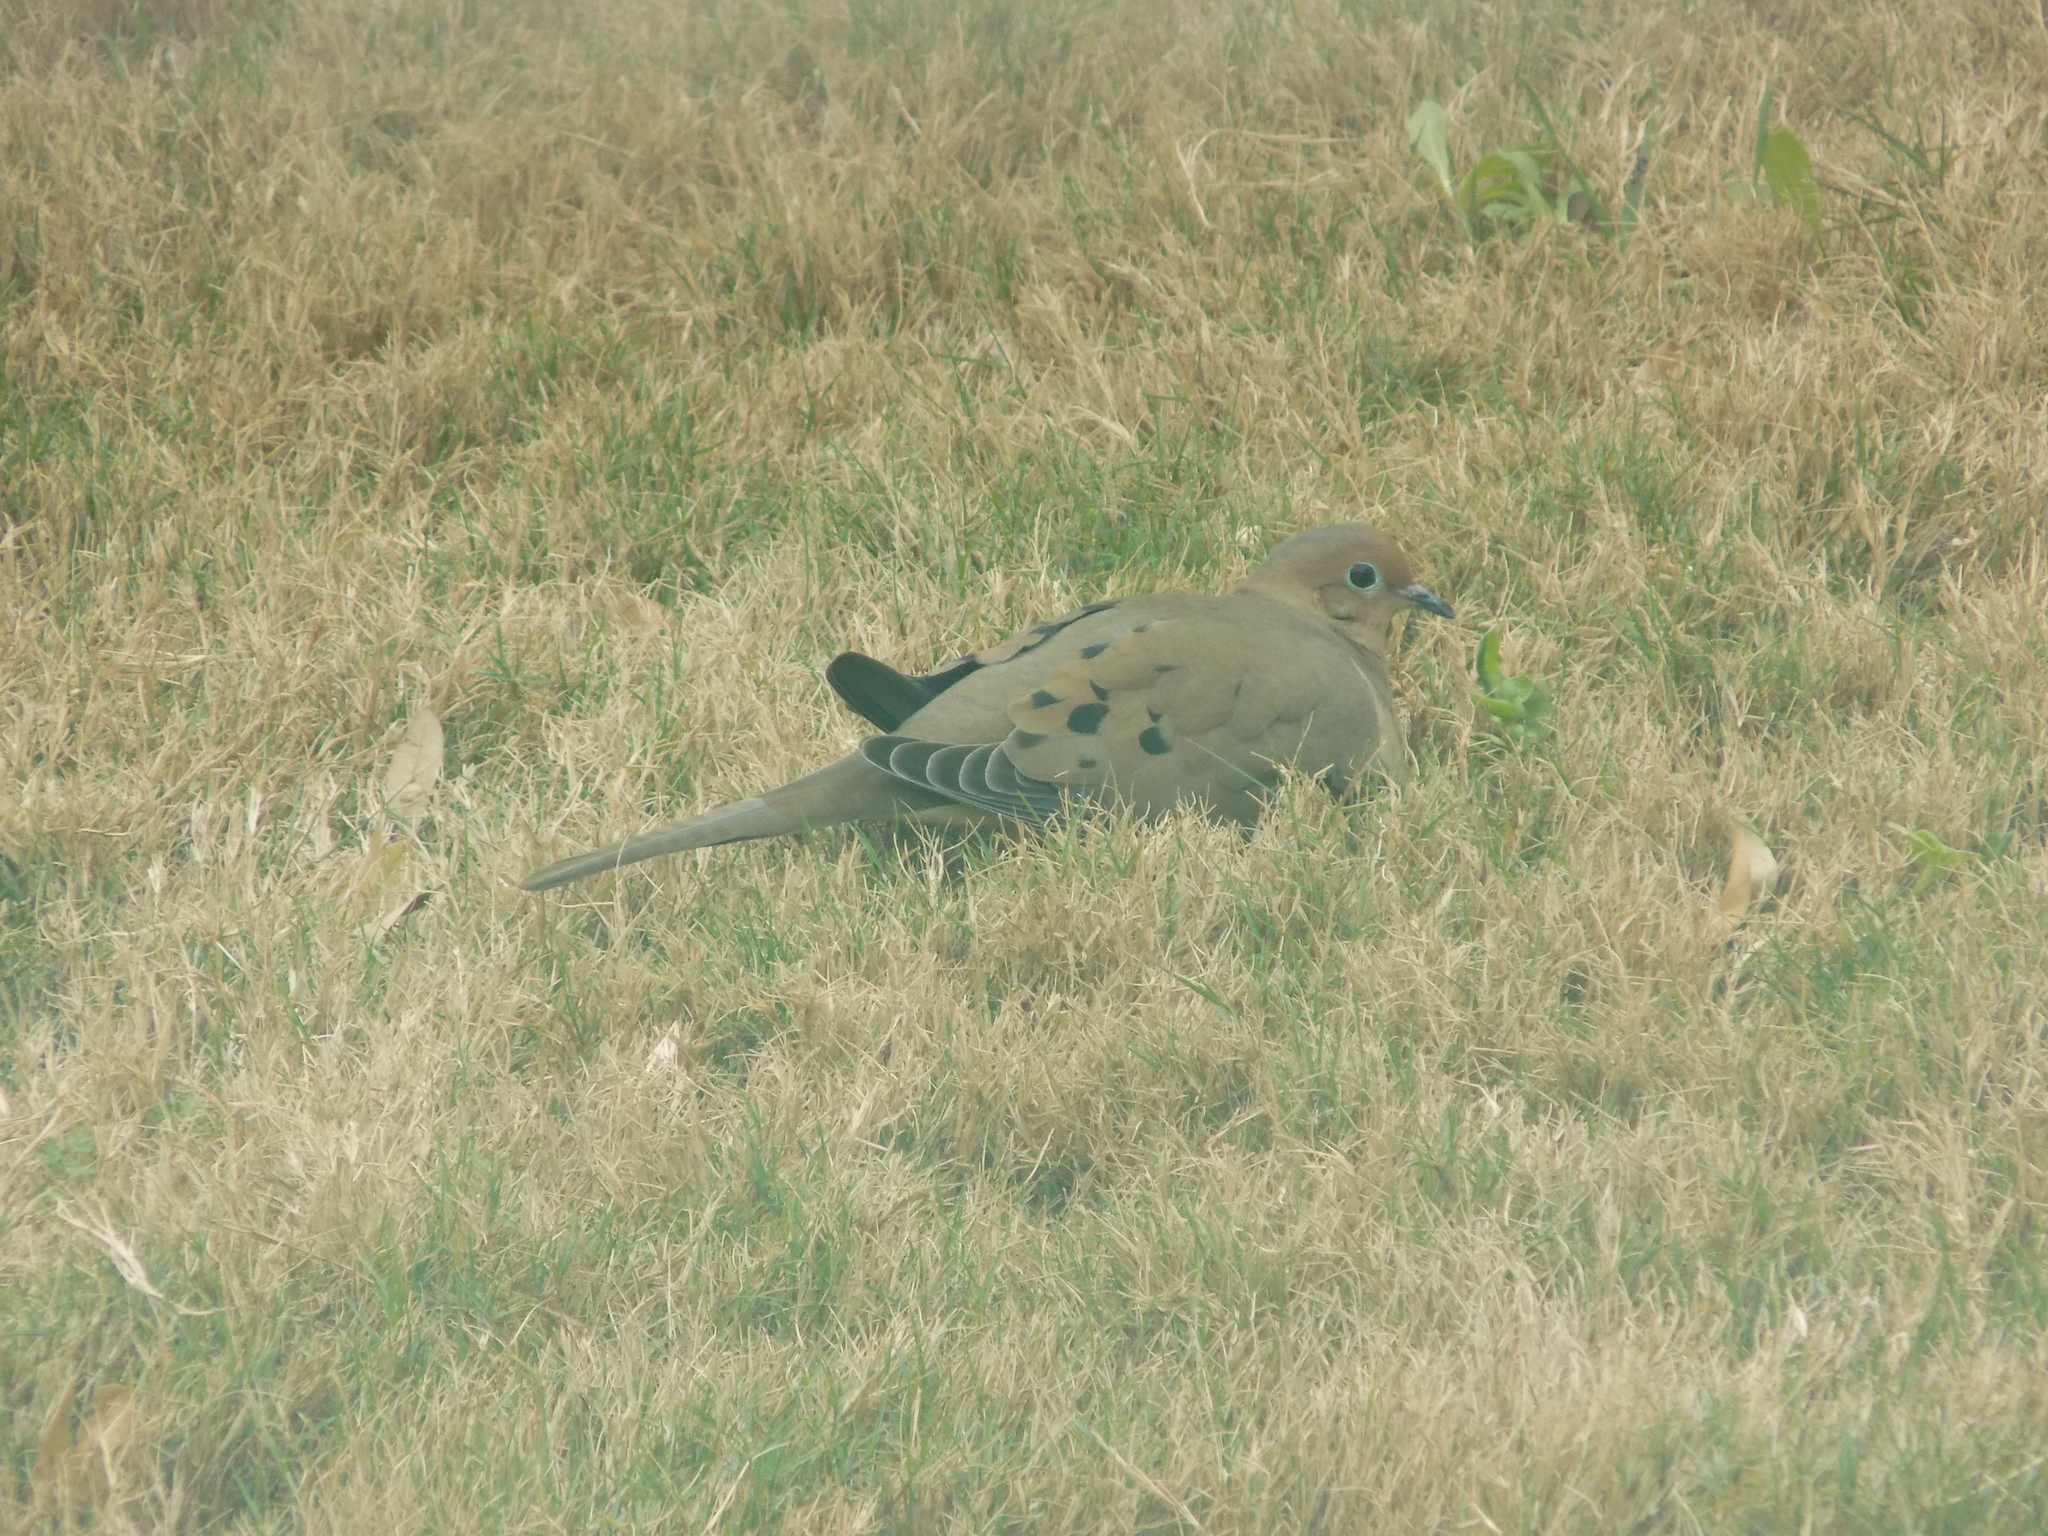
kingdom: Animalia
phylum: Chordata
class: Aves
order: Columbiformes
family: Columbidae
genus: Zenaida
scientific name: Zenaida macroura
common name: Mourning dove
